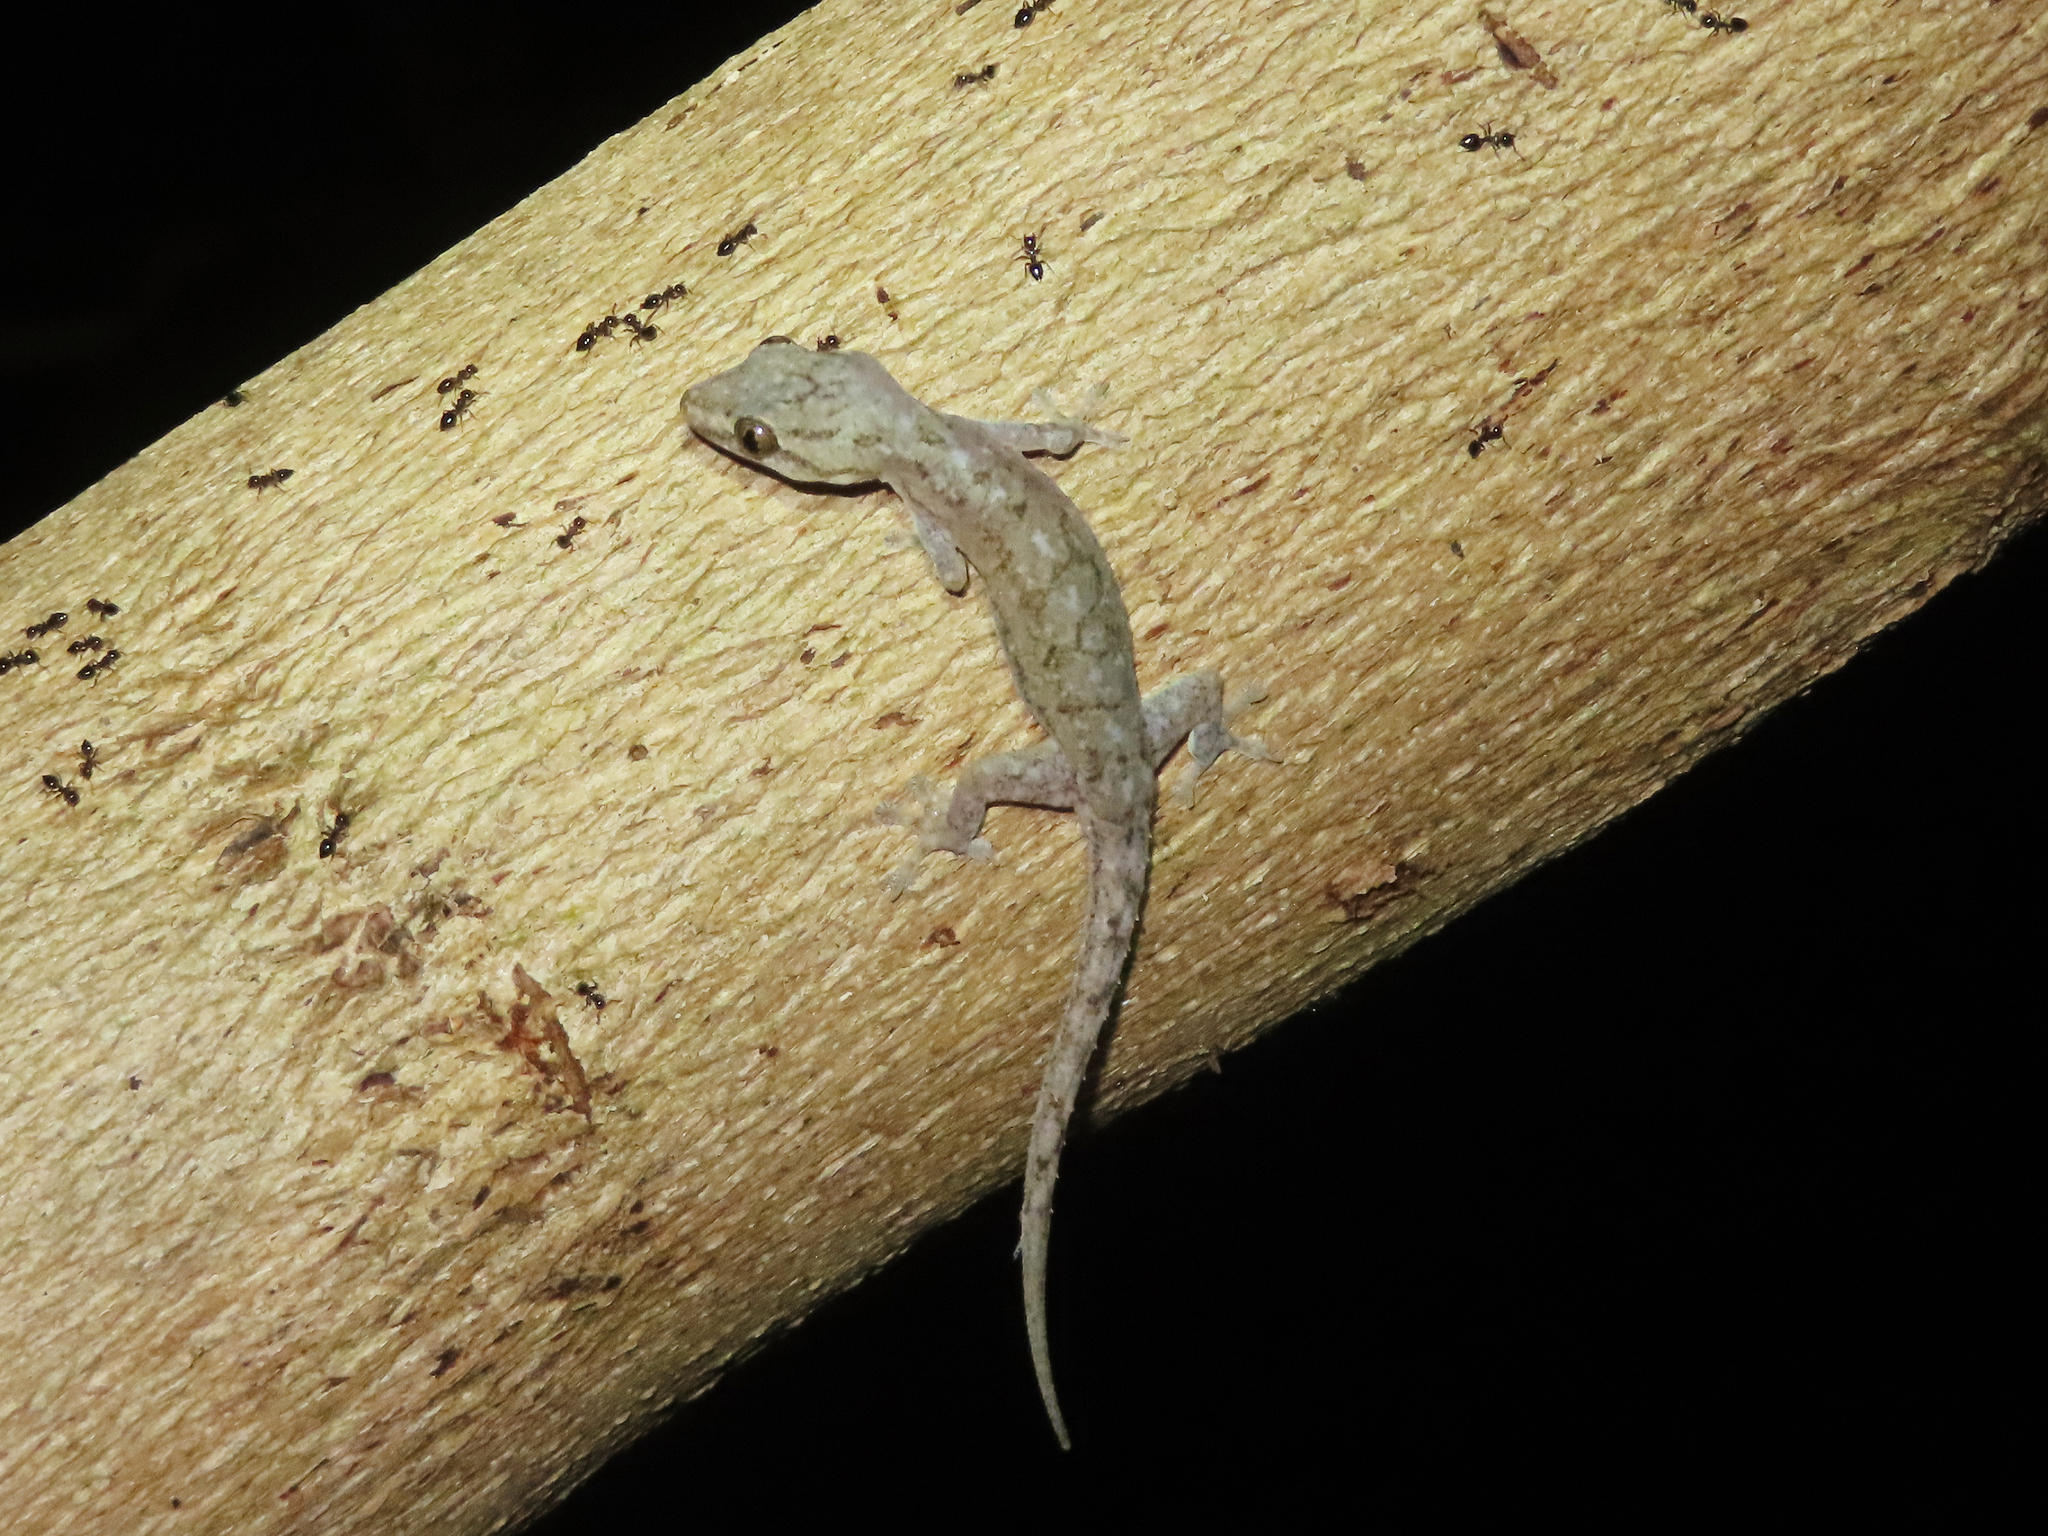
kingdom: Animalia
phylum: Chordata
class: Squamata
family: Gekkonidae
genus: Hemidactylus
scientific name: Hemidactylus frenatus
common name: Common house gecko
